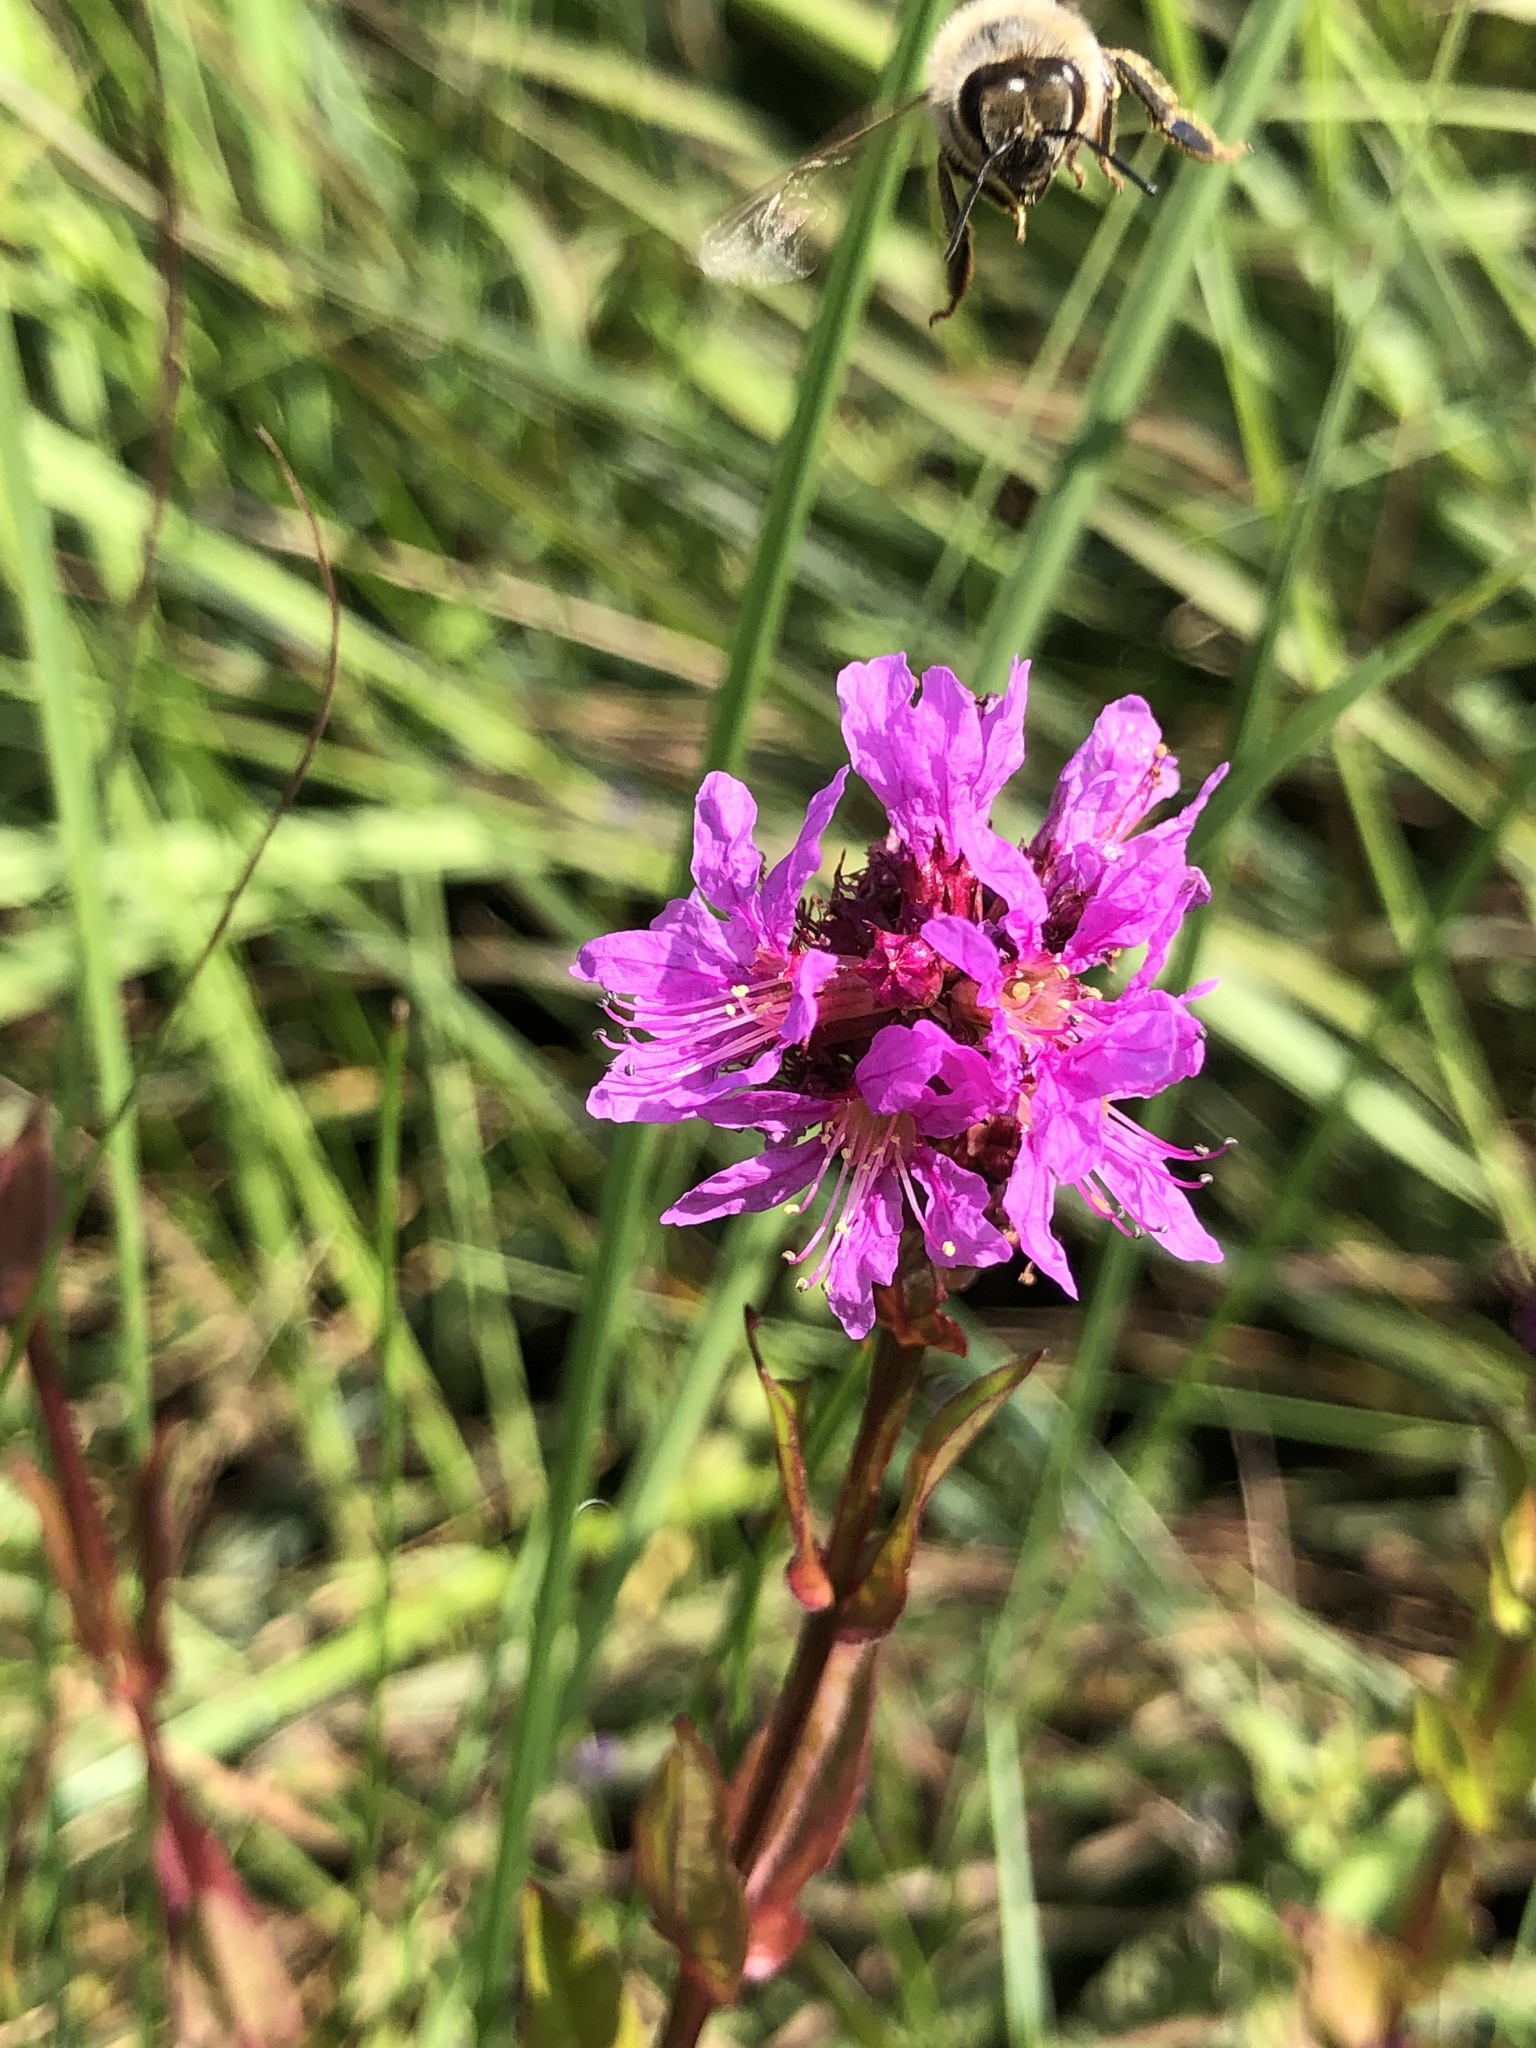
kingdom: Plantae
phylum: Tracheophyta
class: Magnoliopsida
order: Myrtales
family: Lythraceae
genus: Lythrum
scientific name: Lythrum salicaria
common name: Purple loosestrife
